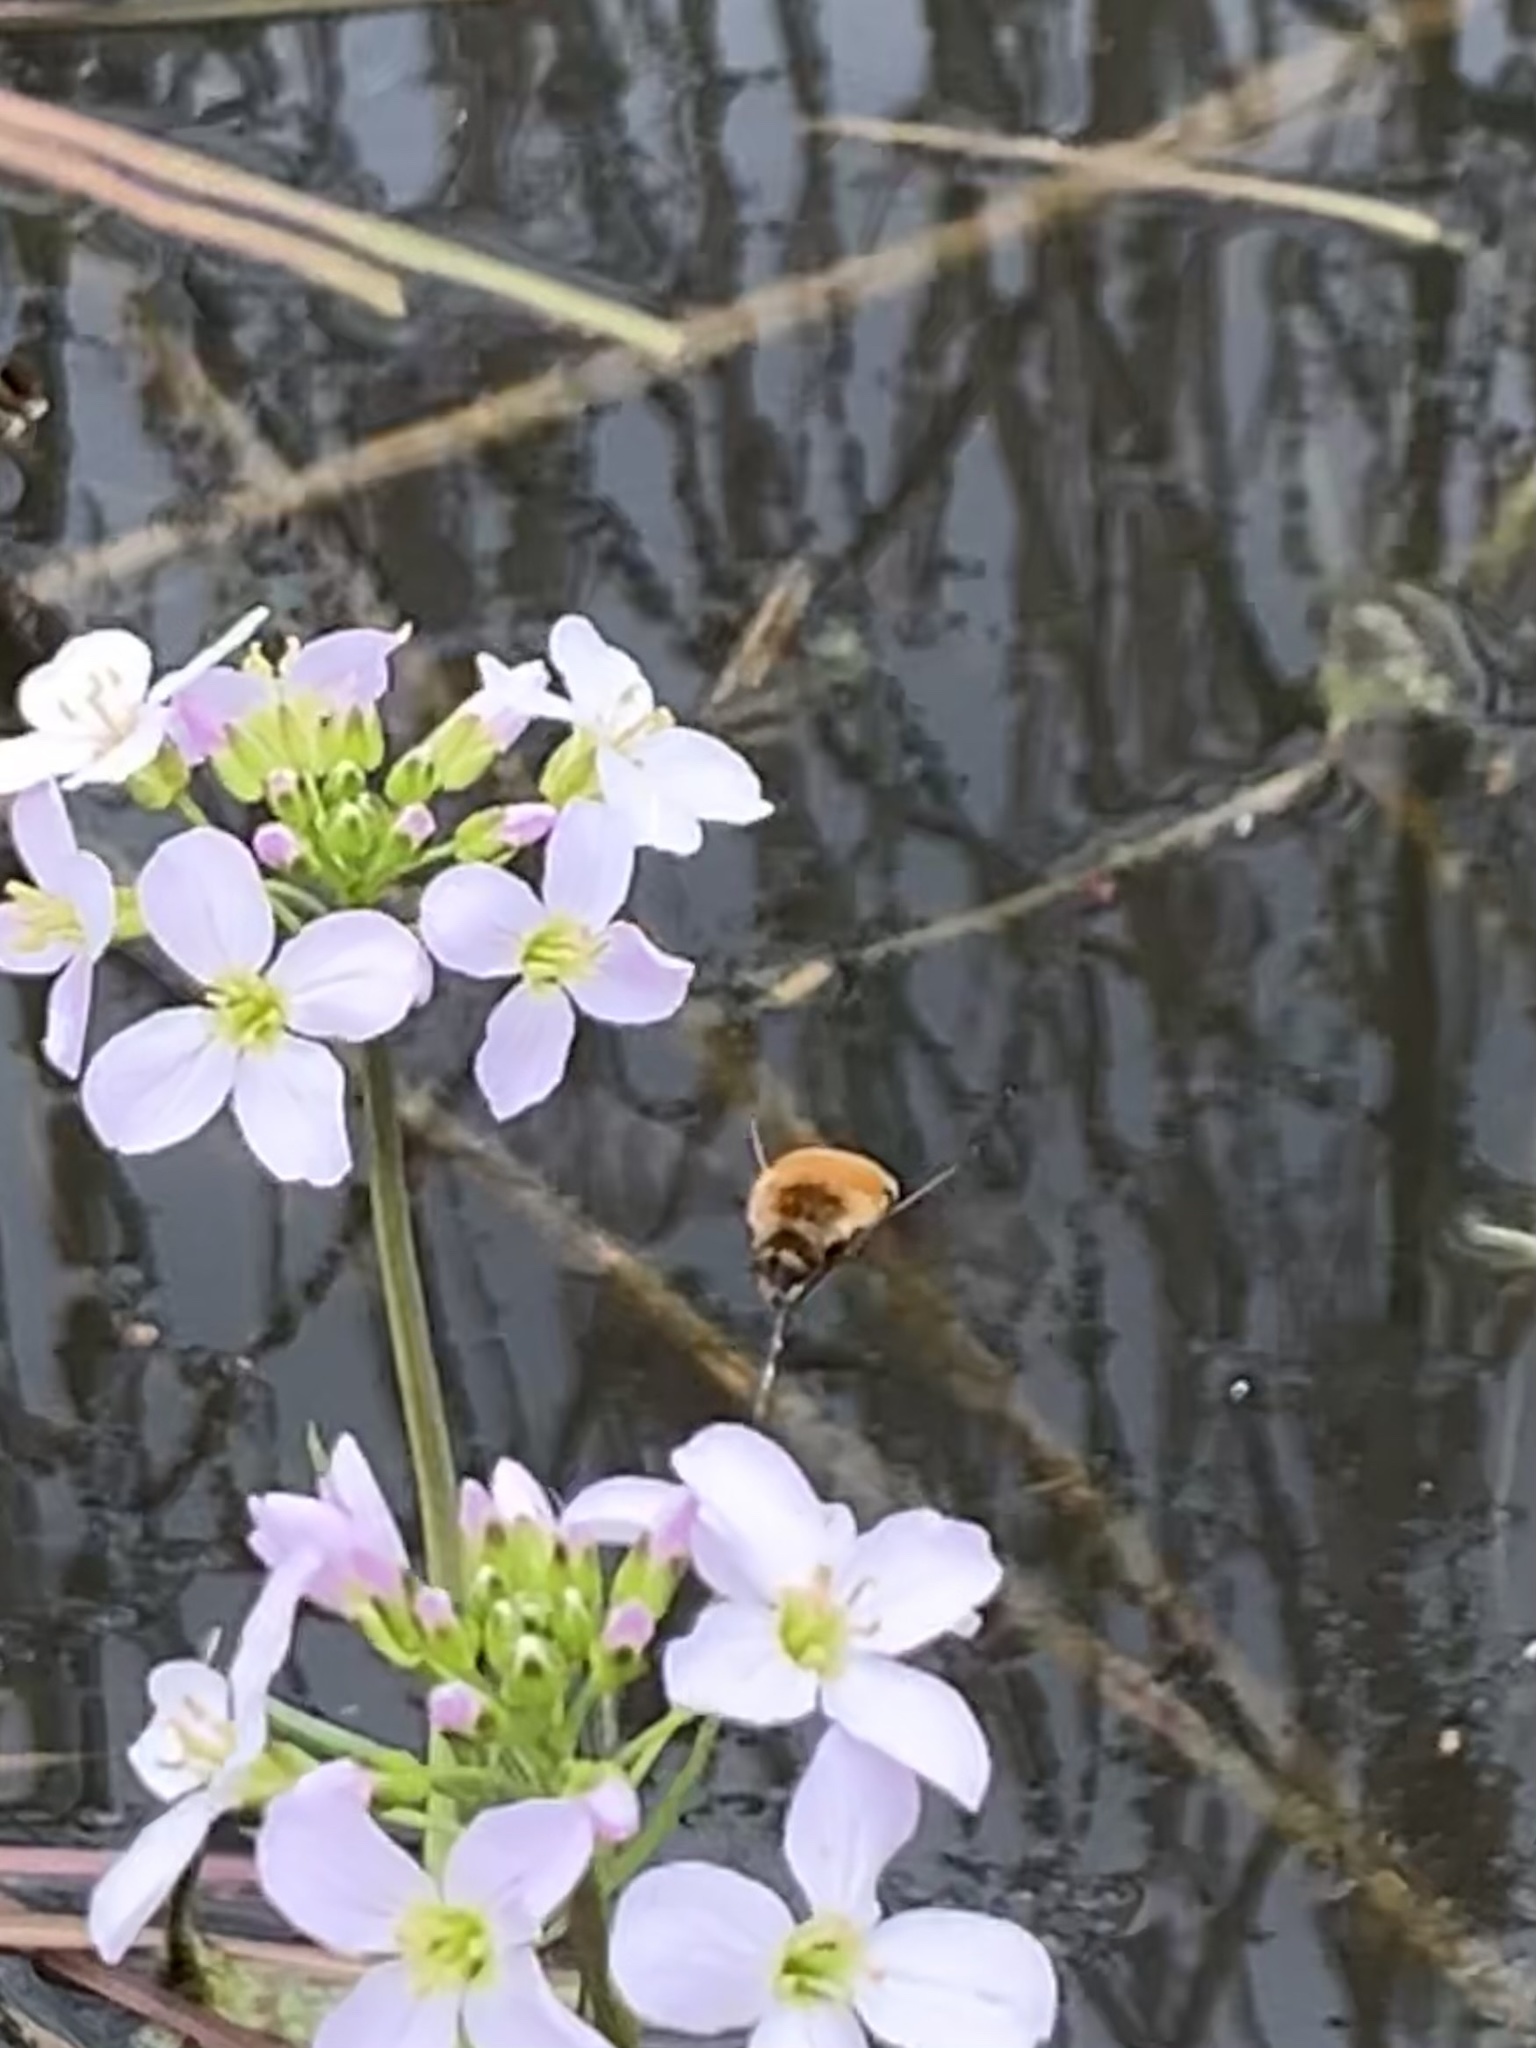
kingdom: Animalia
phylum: Arthropoda
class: Insecta
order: Diptera
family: Bombyliidae
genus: Bombylius
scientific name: Bombylius major
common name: Bee fly
